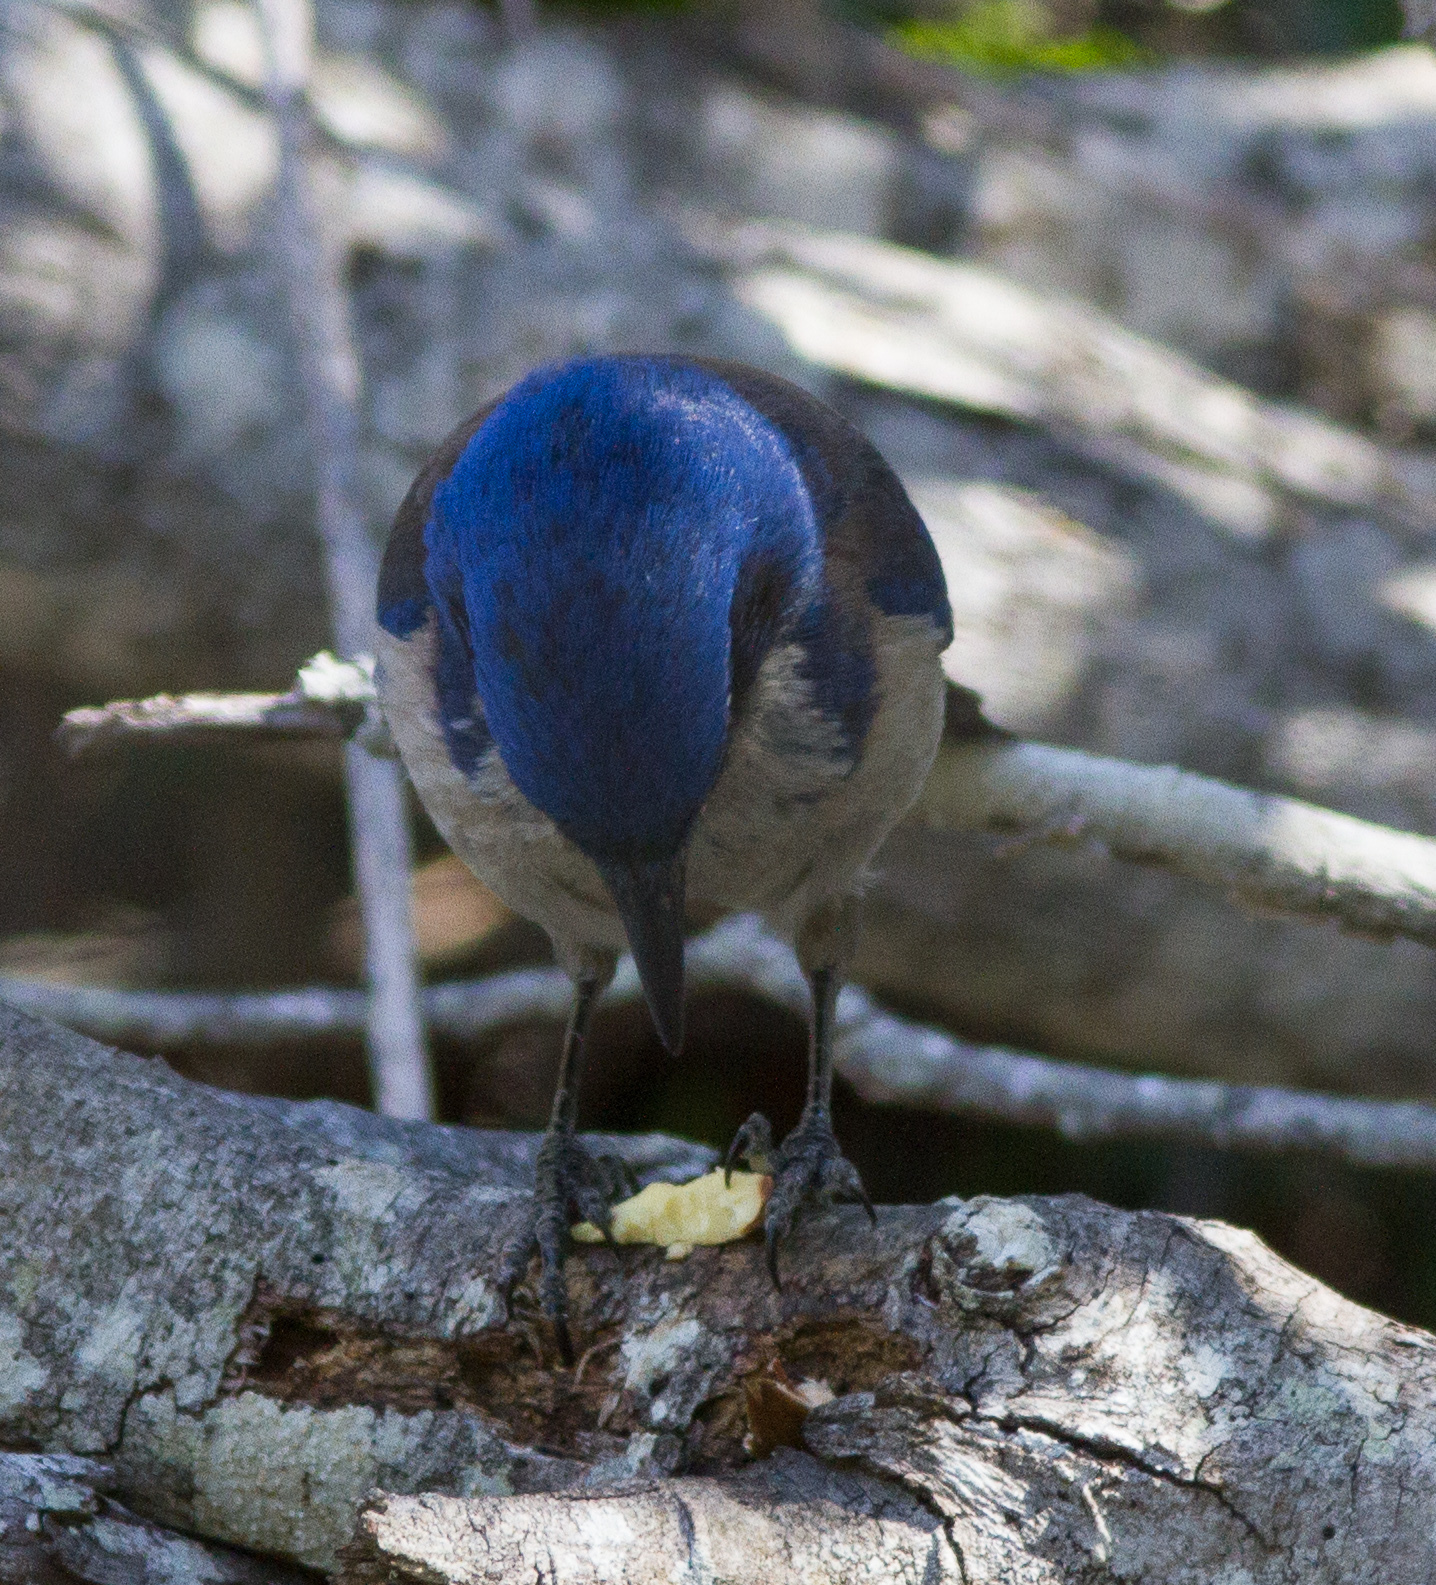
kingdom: Animalia
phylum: Chordata
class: Aves
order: Passeriformes
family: Corvidae
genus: Aphelocoma
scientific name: Aphelocoma insularis
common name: Island scrub-jay
